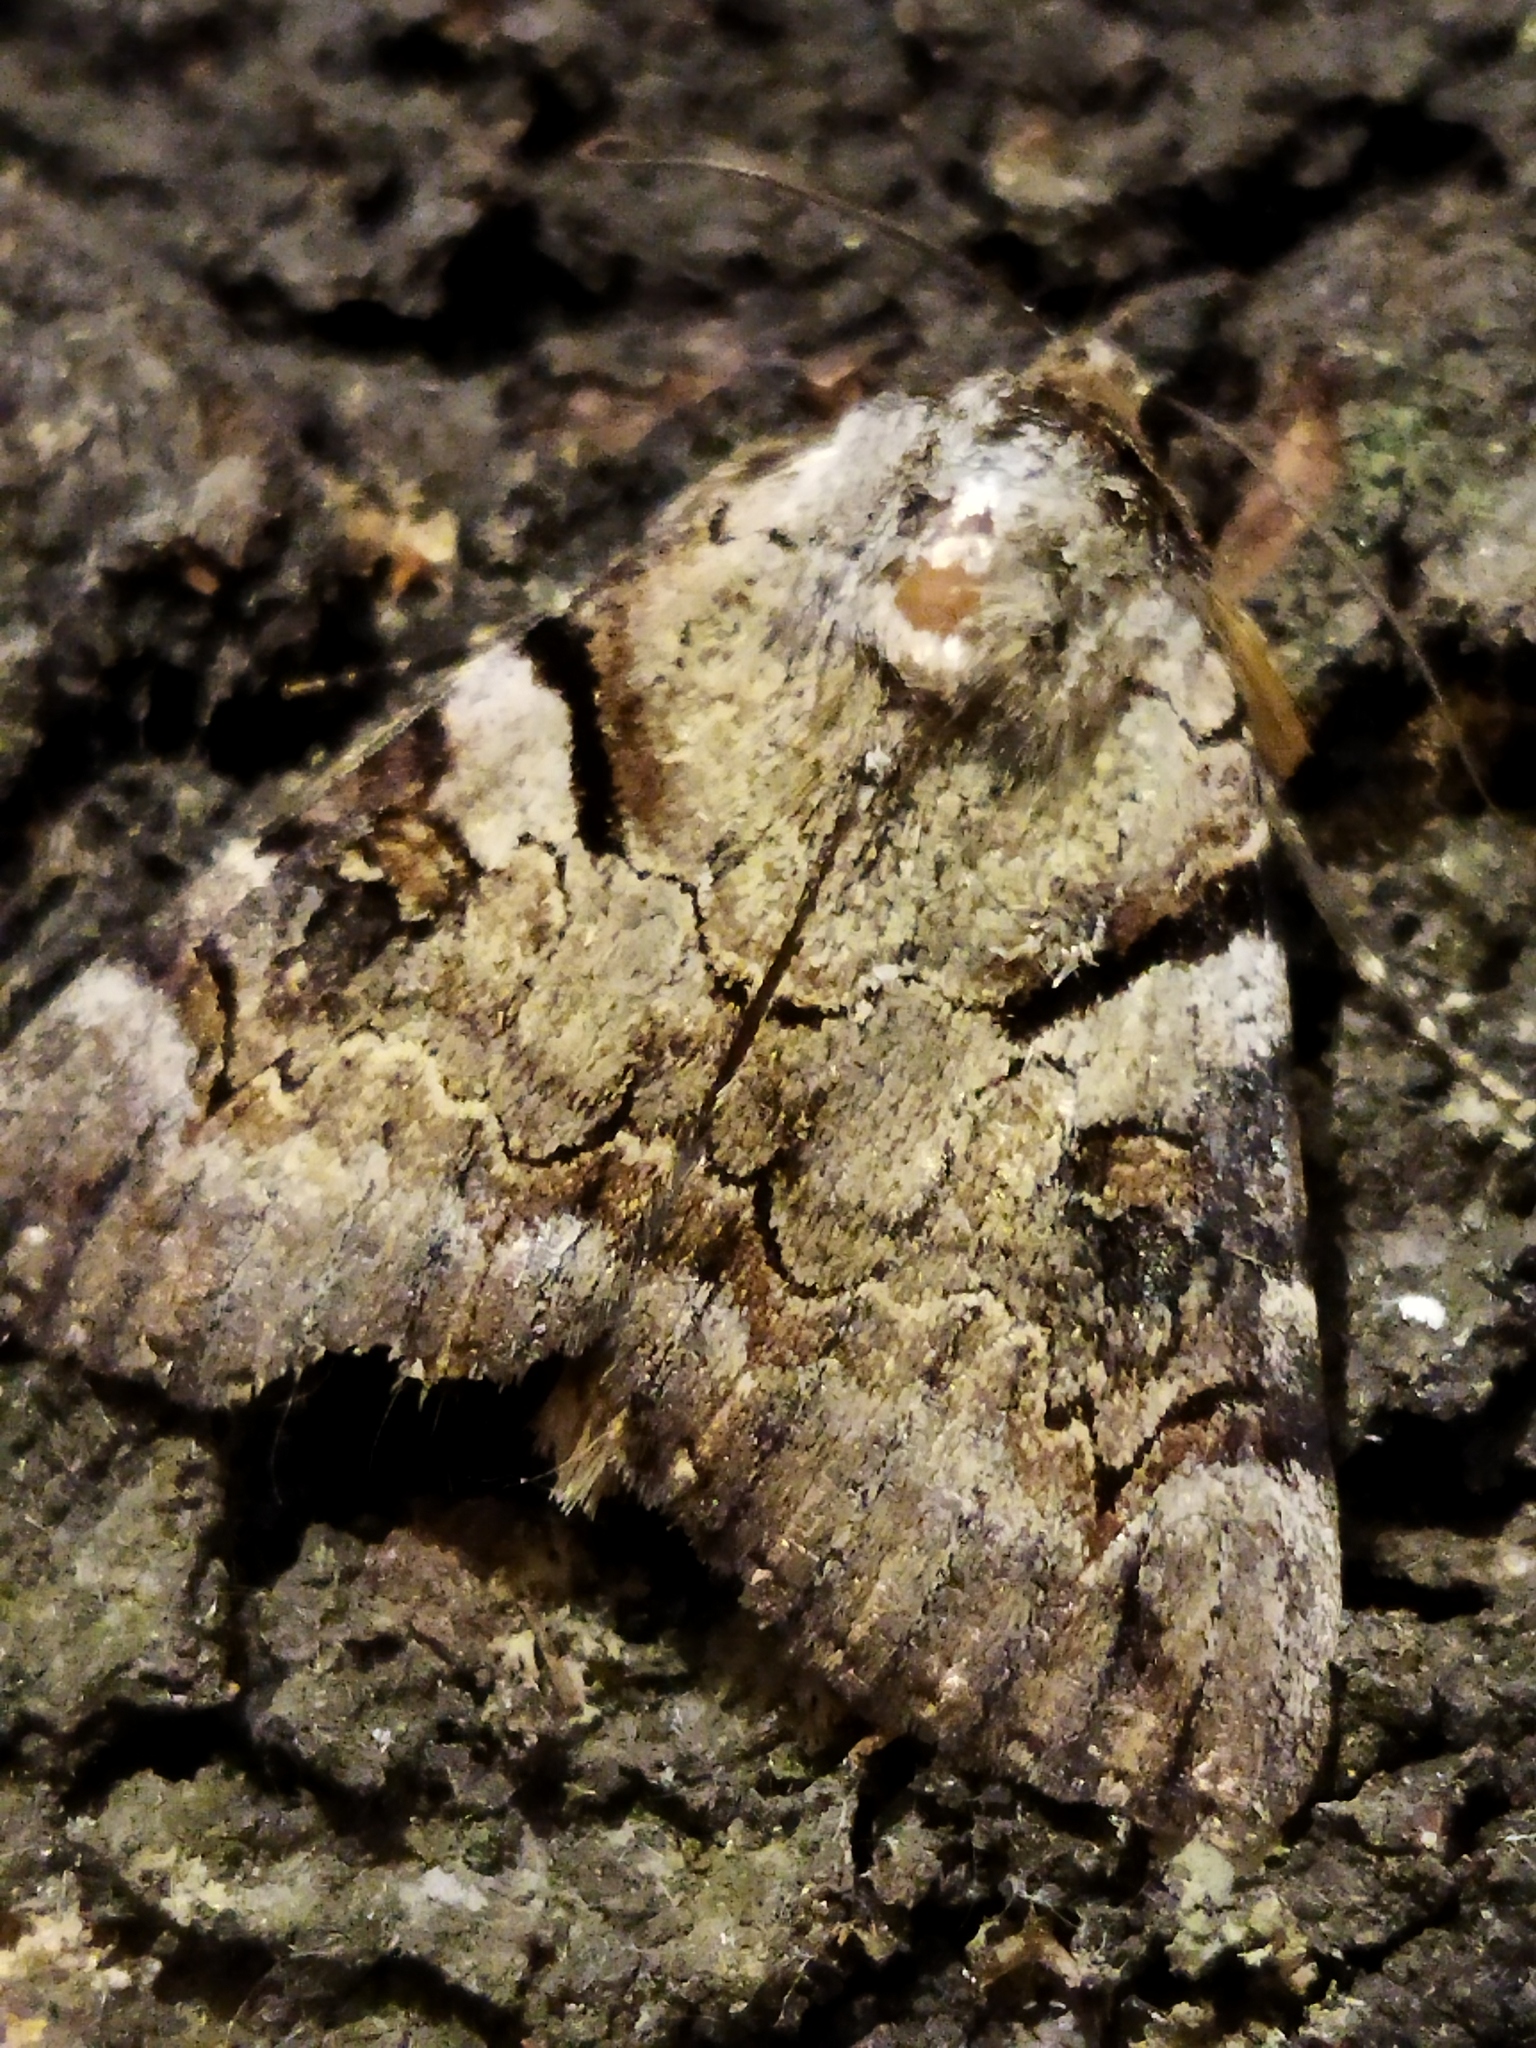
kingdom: Animalia
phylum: Arthropoda
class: Insecta
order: Lepidoptera
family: Erebidae
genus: Catocala
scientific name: Catocala hymenaea
